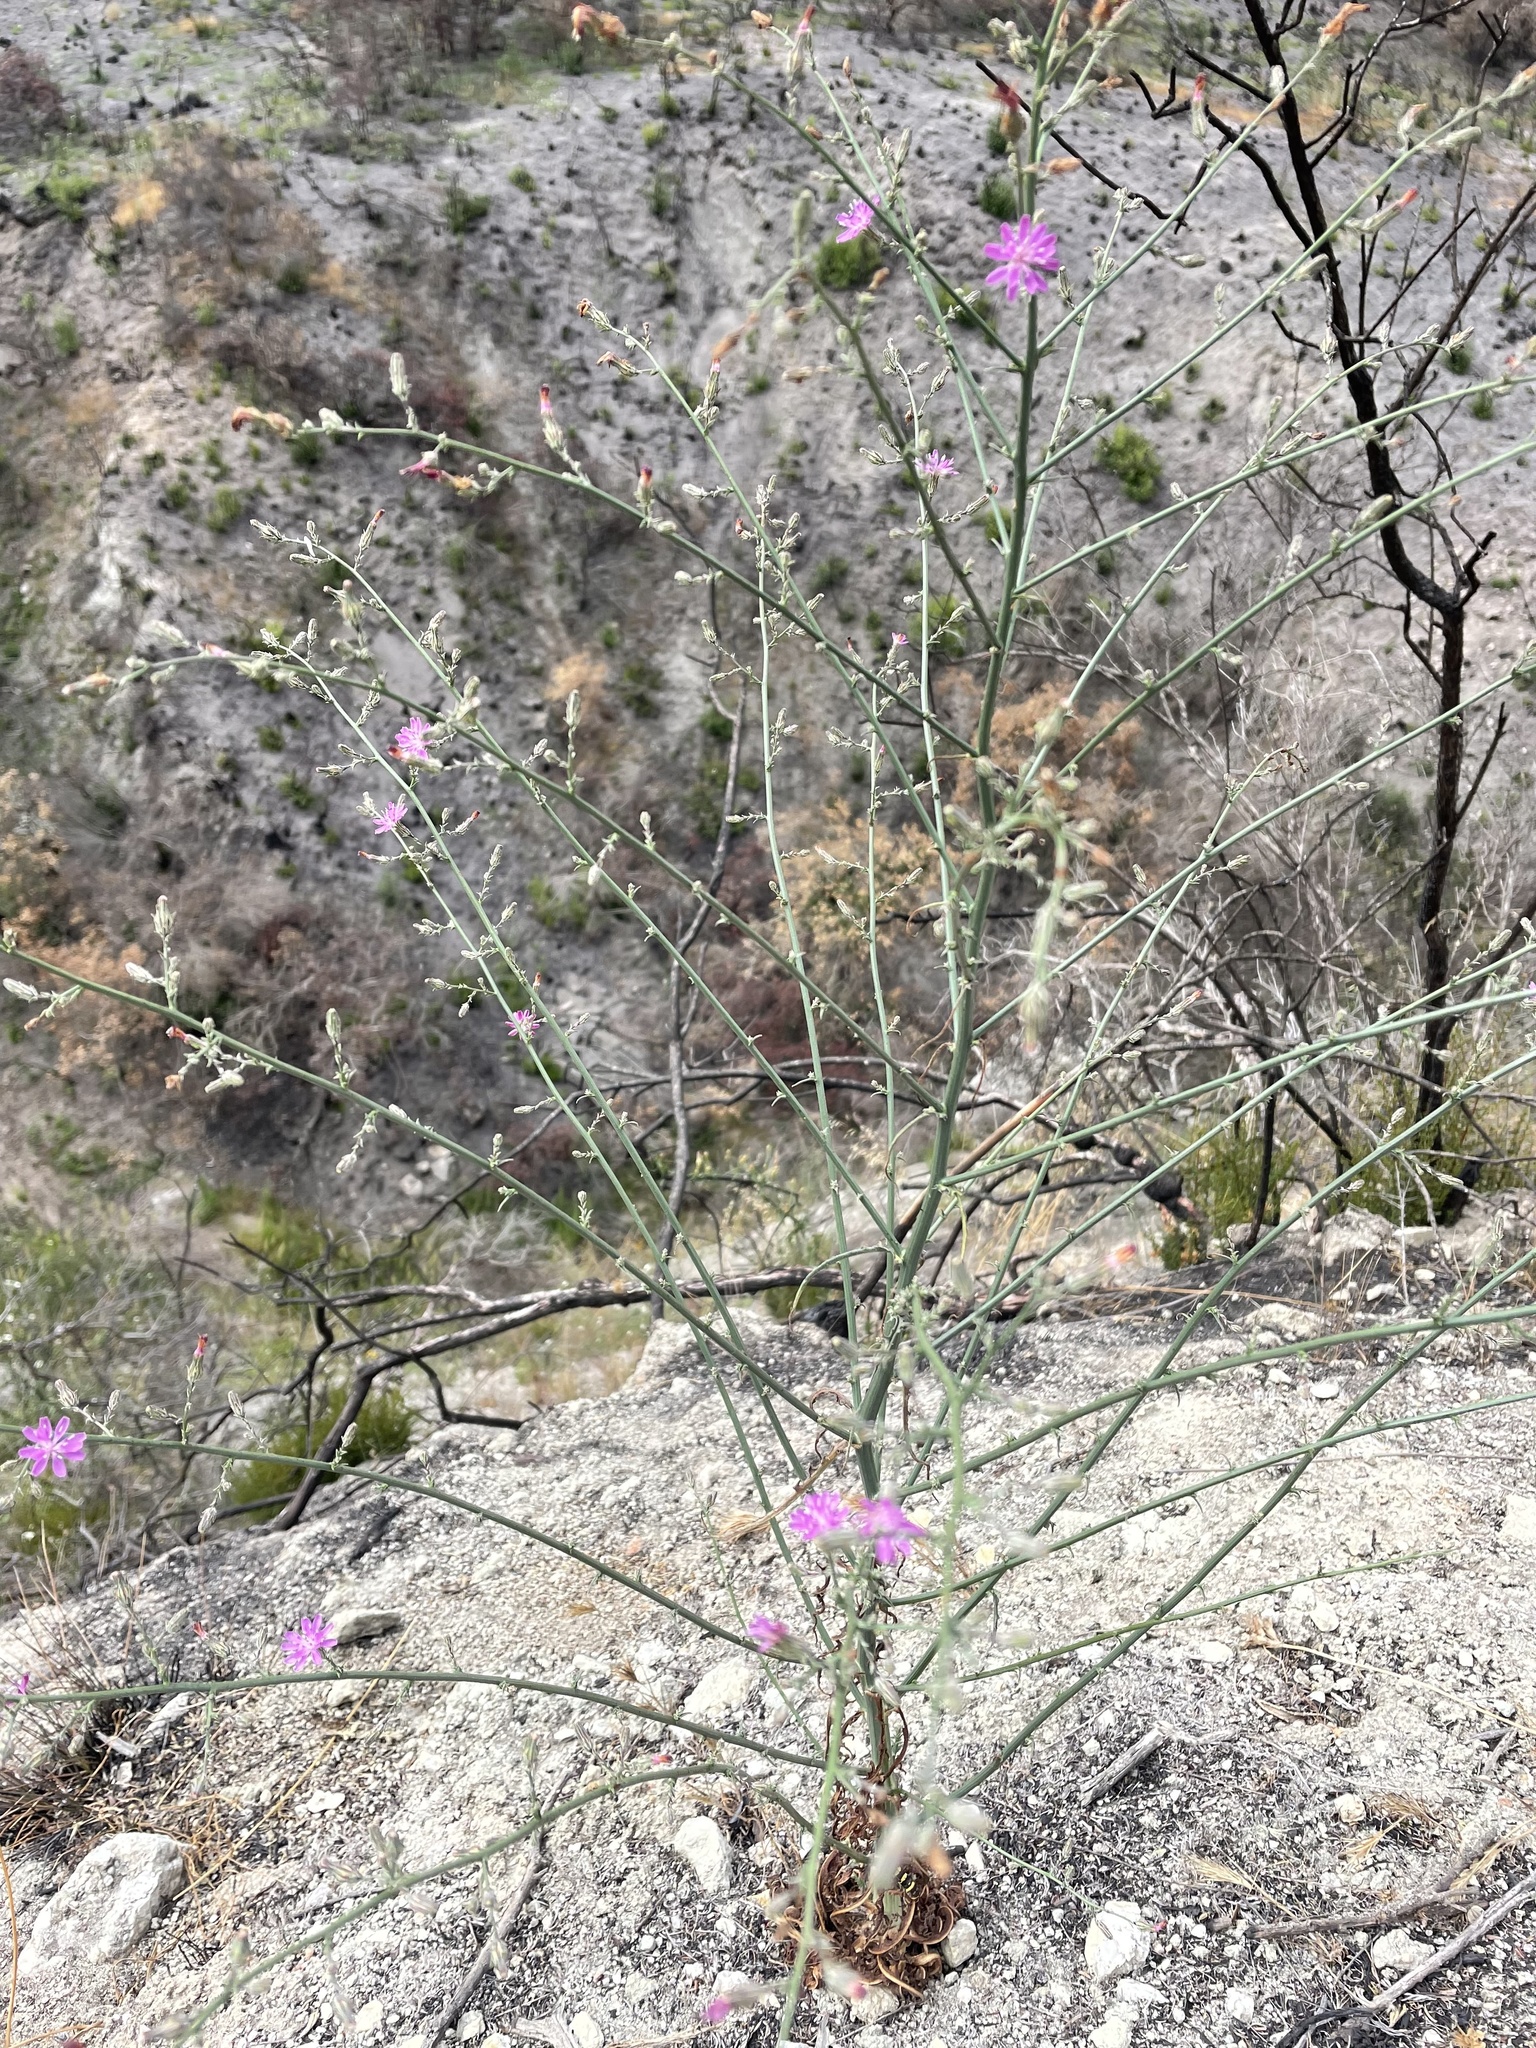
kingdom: Plantae
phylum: Tracheophyta
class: Magnoliopsida
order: Asterales
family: Asteraceae
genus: Stephanomeria
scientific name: Stephanomeria elata
